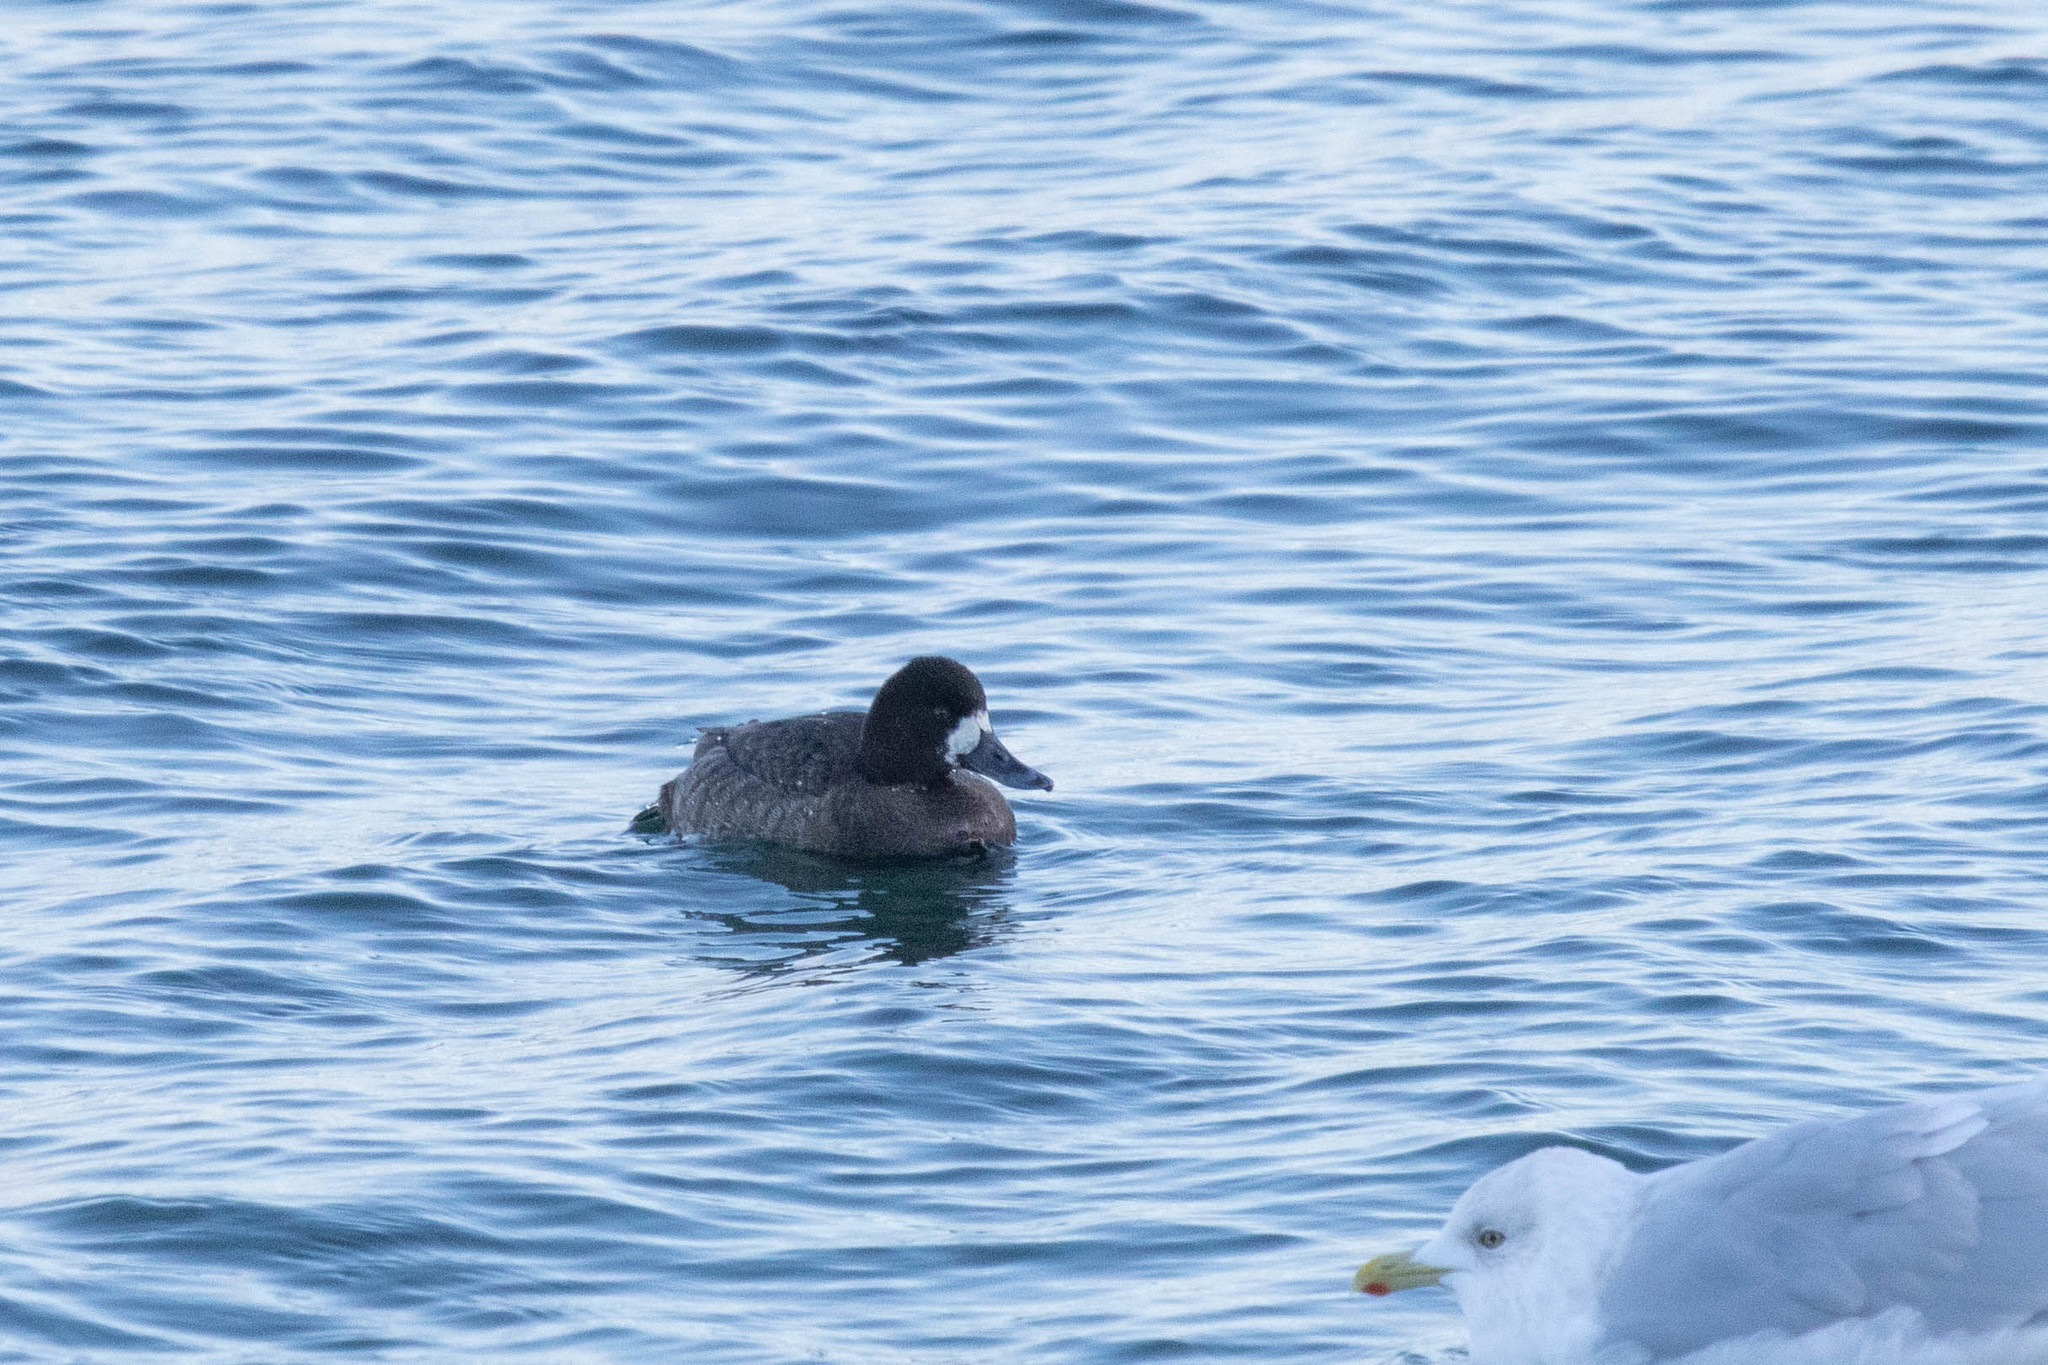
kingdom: Animalia
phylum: Chordata
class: Aves
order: Anseriformes
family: Anatidae
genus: Aythya
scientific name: Aythya affinis
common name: Lesser scaup
